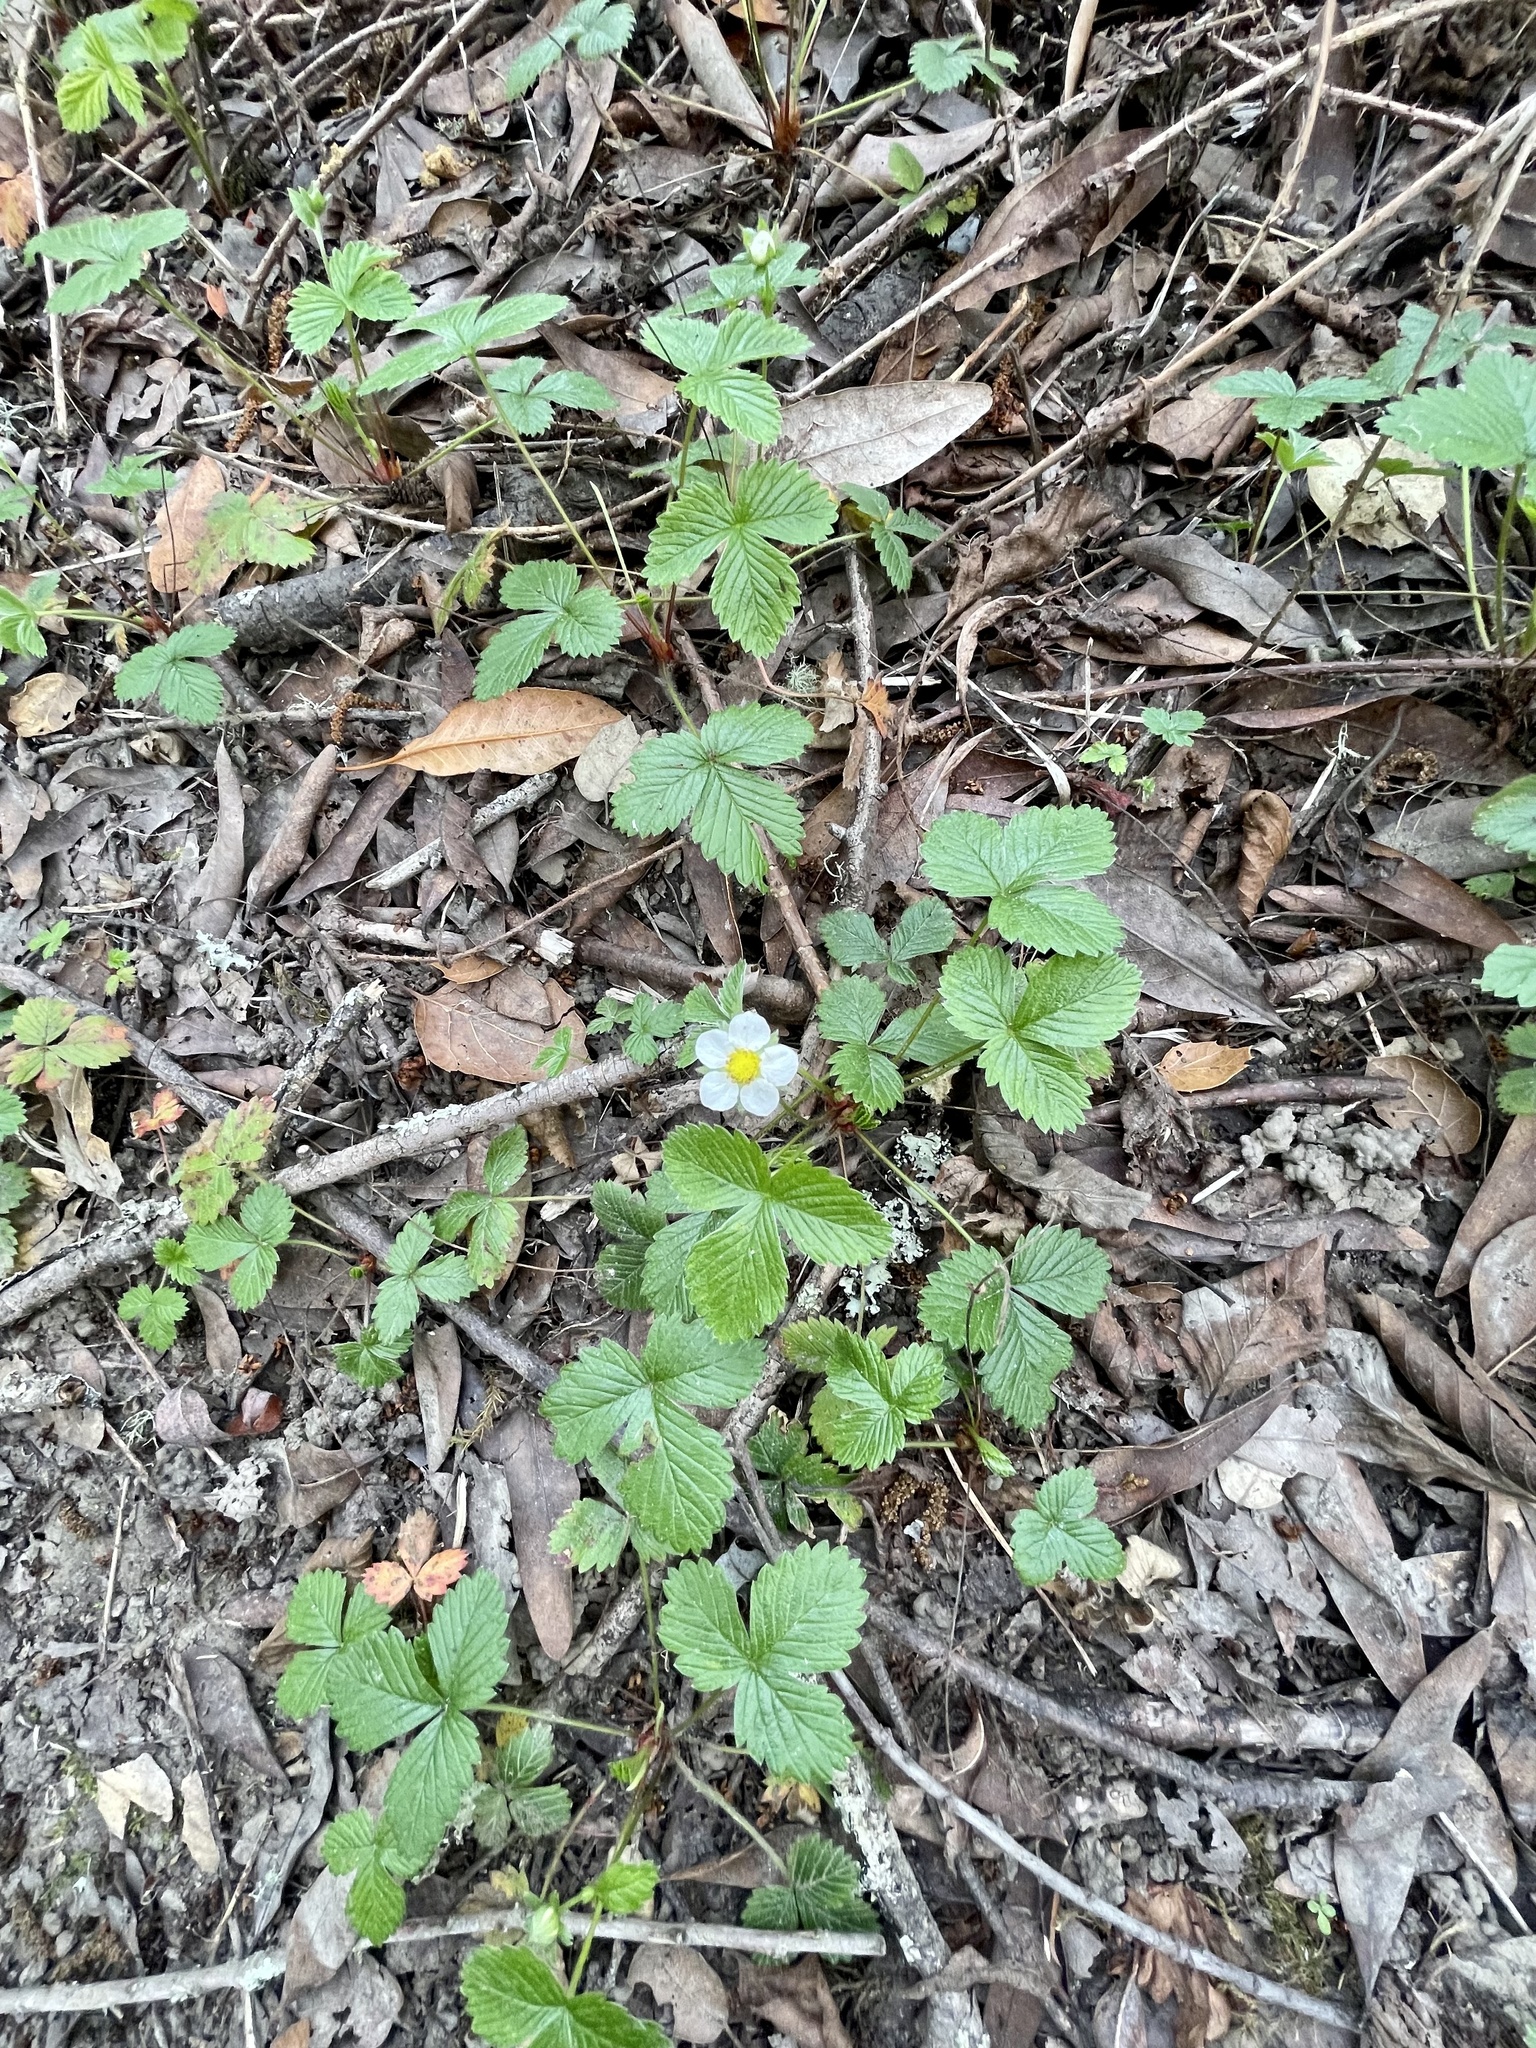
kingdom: Plantae
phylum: Tracheophyta
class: Magnoliopsida
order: Rosales
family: Rosaceae
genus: Fragaria
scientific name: Fragaria vesca
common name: Wild strawberry
